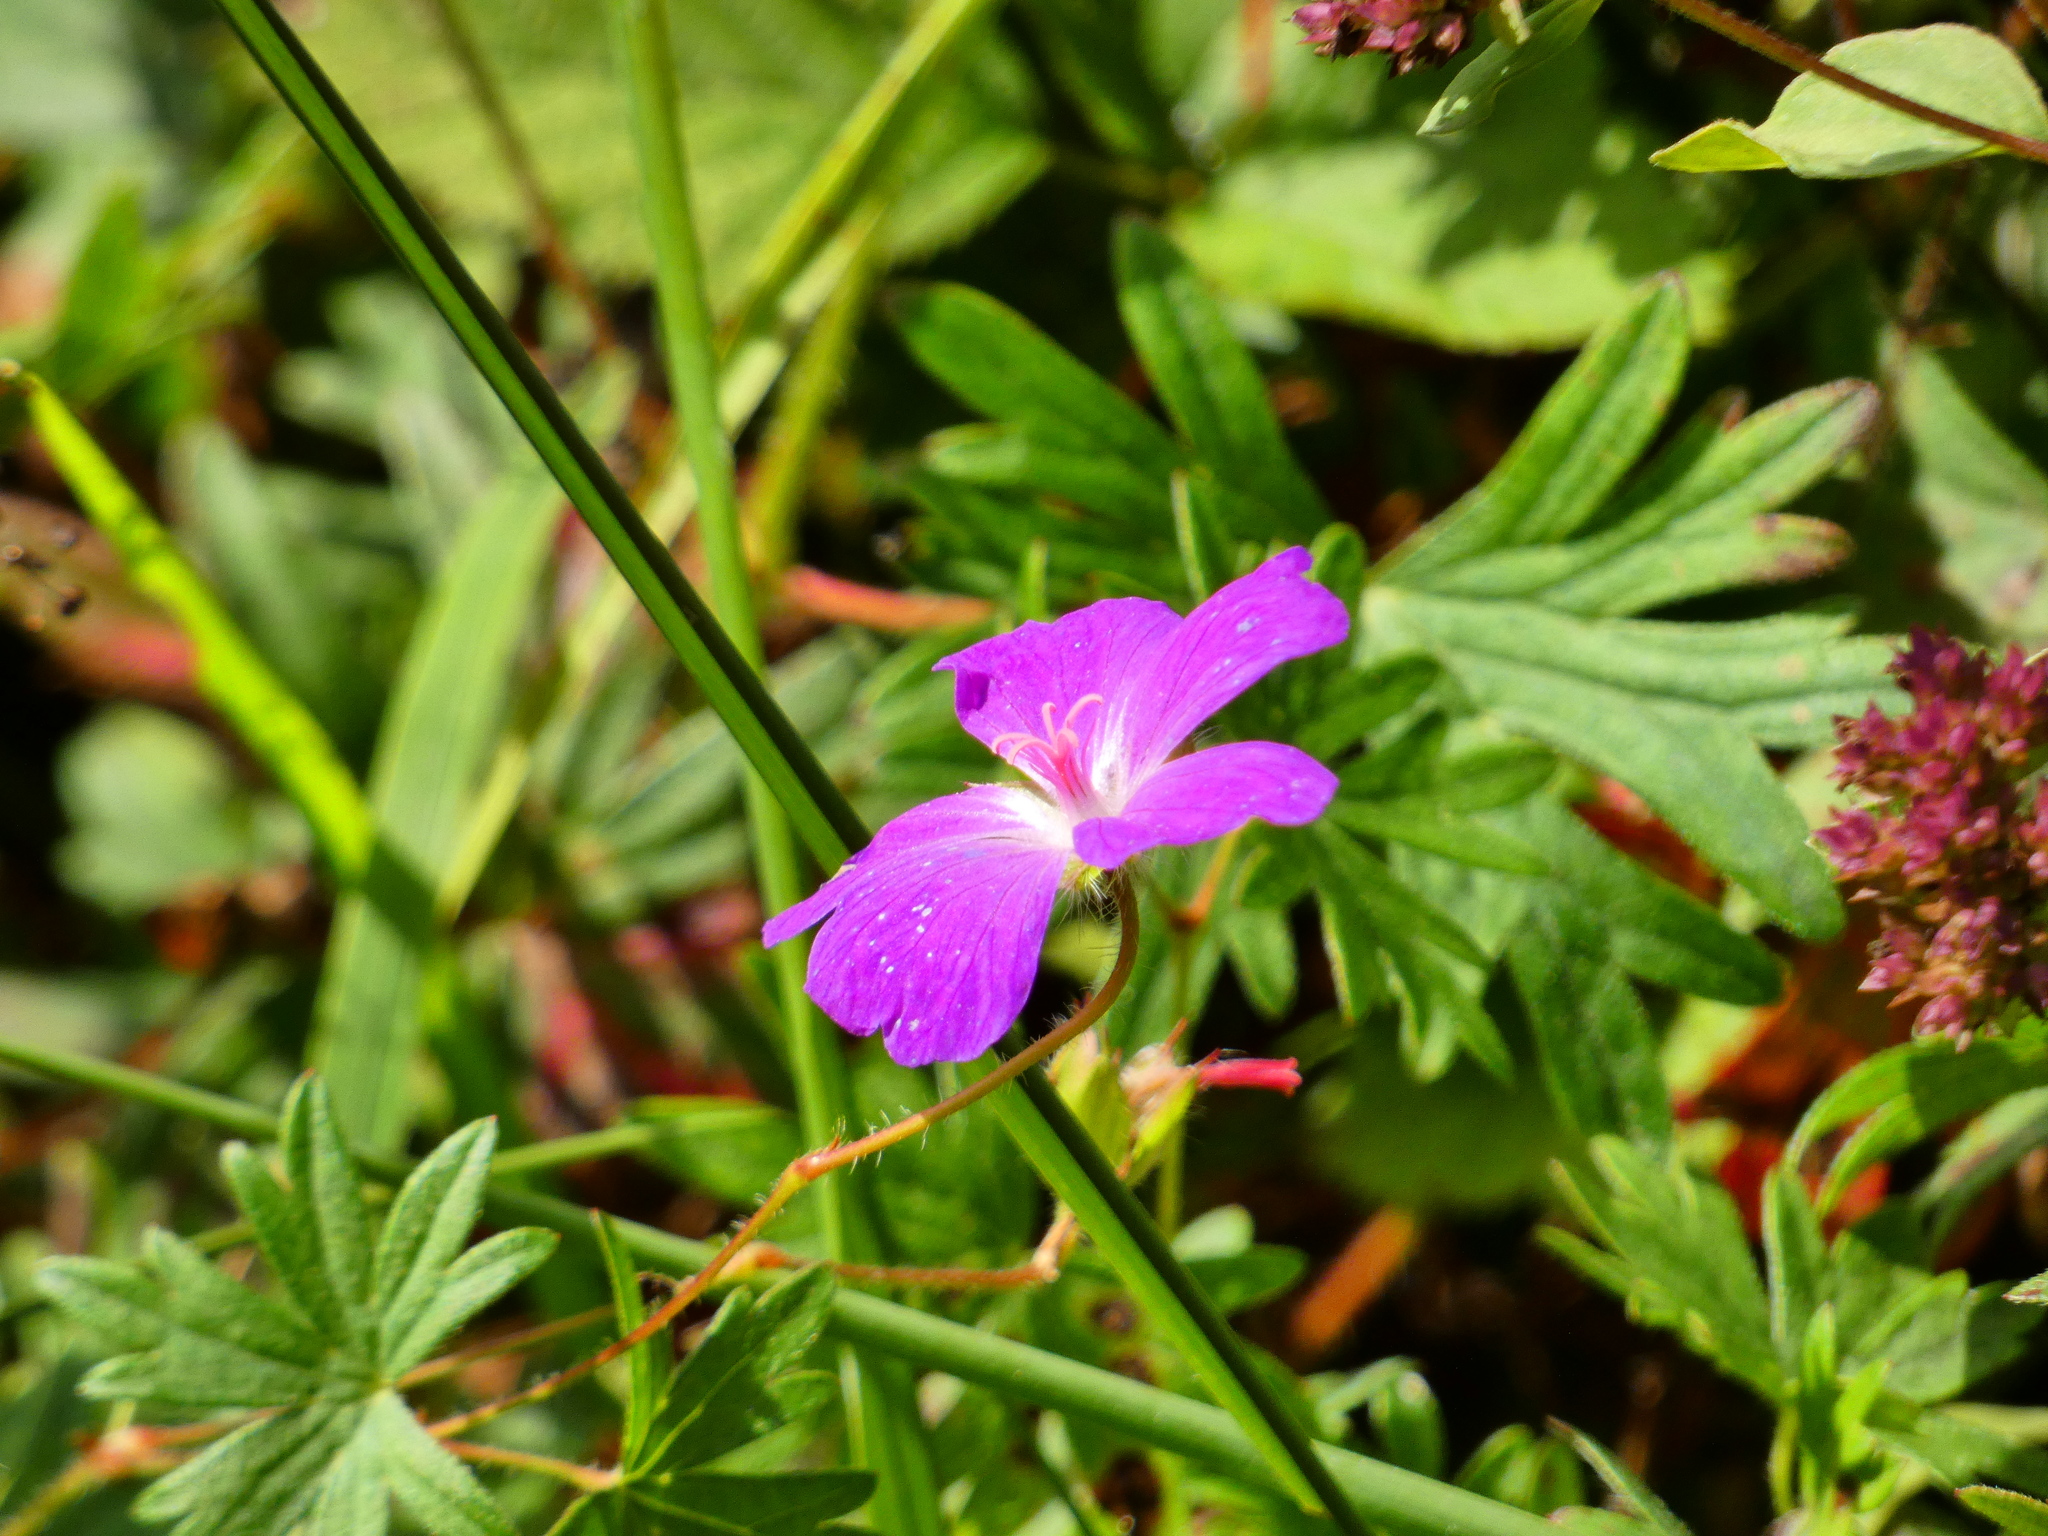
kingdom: Plantae
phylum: Tracheophyta
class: Magnoliopsida
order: Geraniales
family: Geraniaceae
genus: Geranium
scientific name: Geranium sanguineum
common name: Bloody crane's-bill
